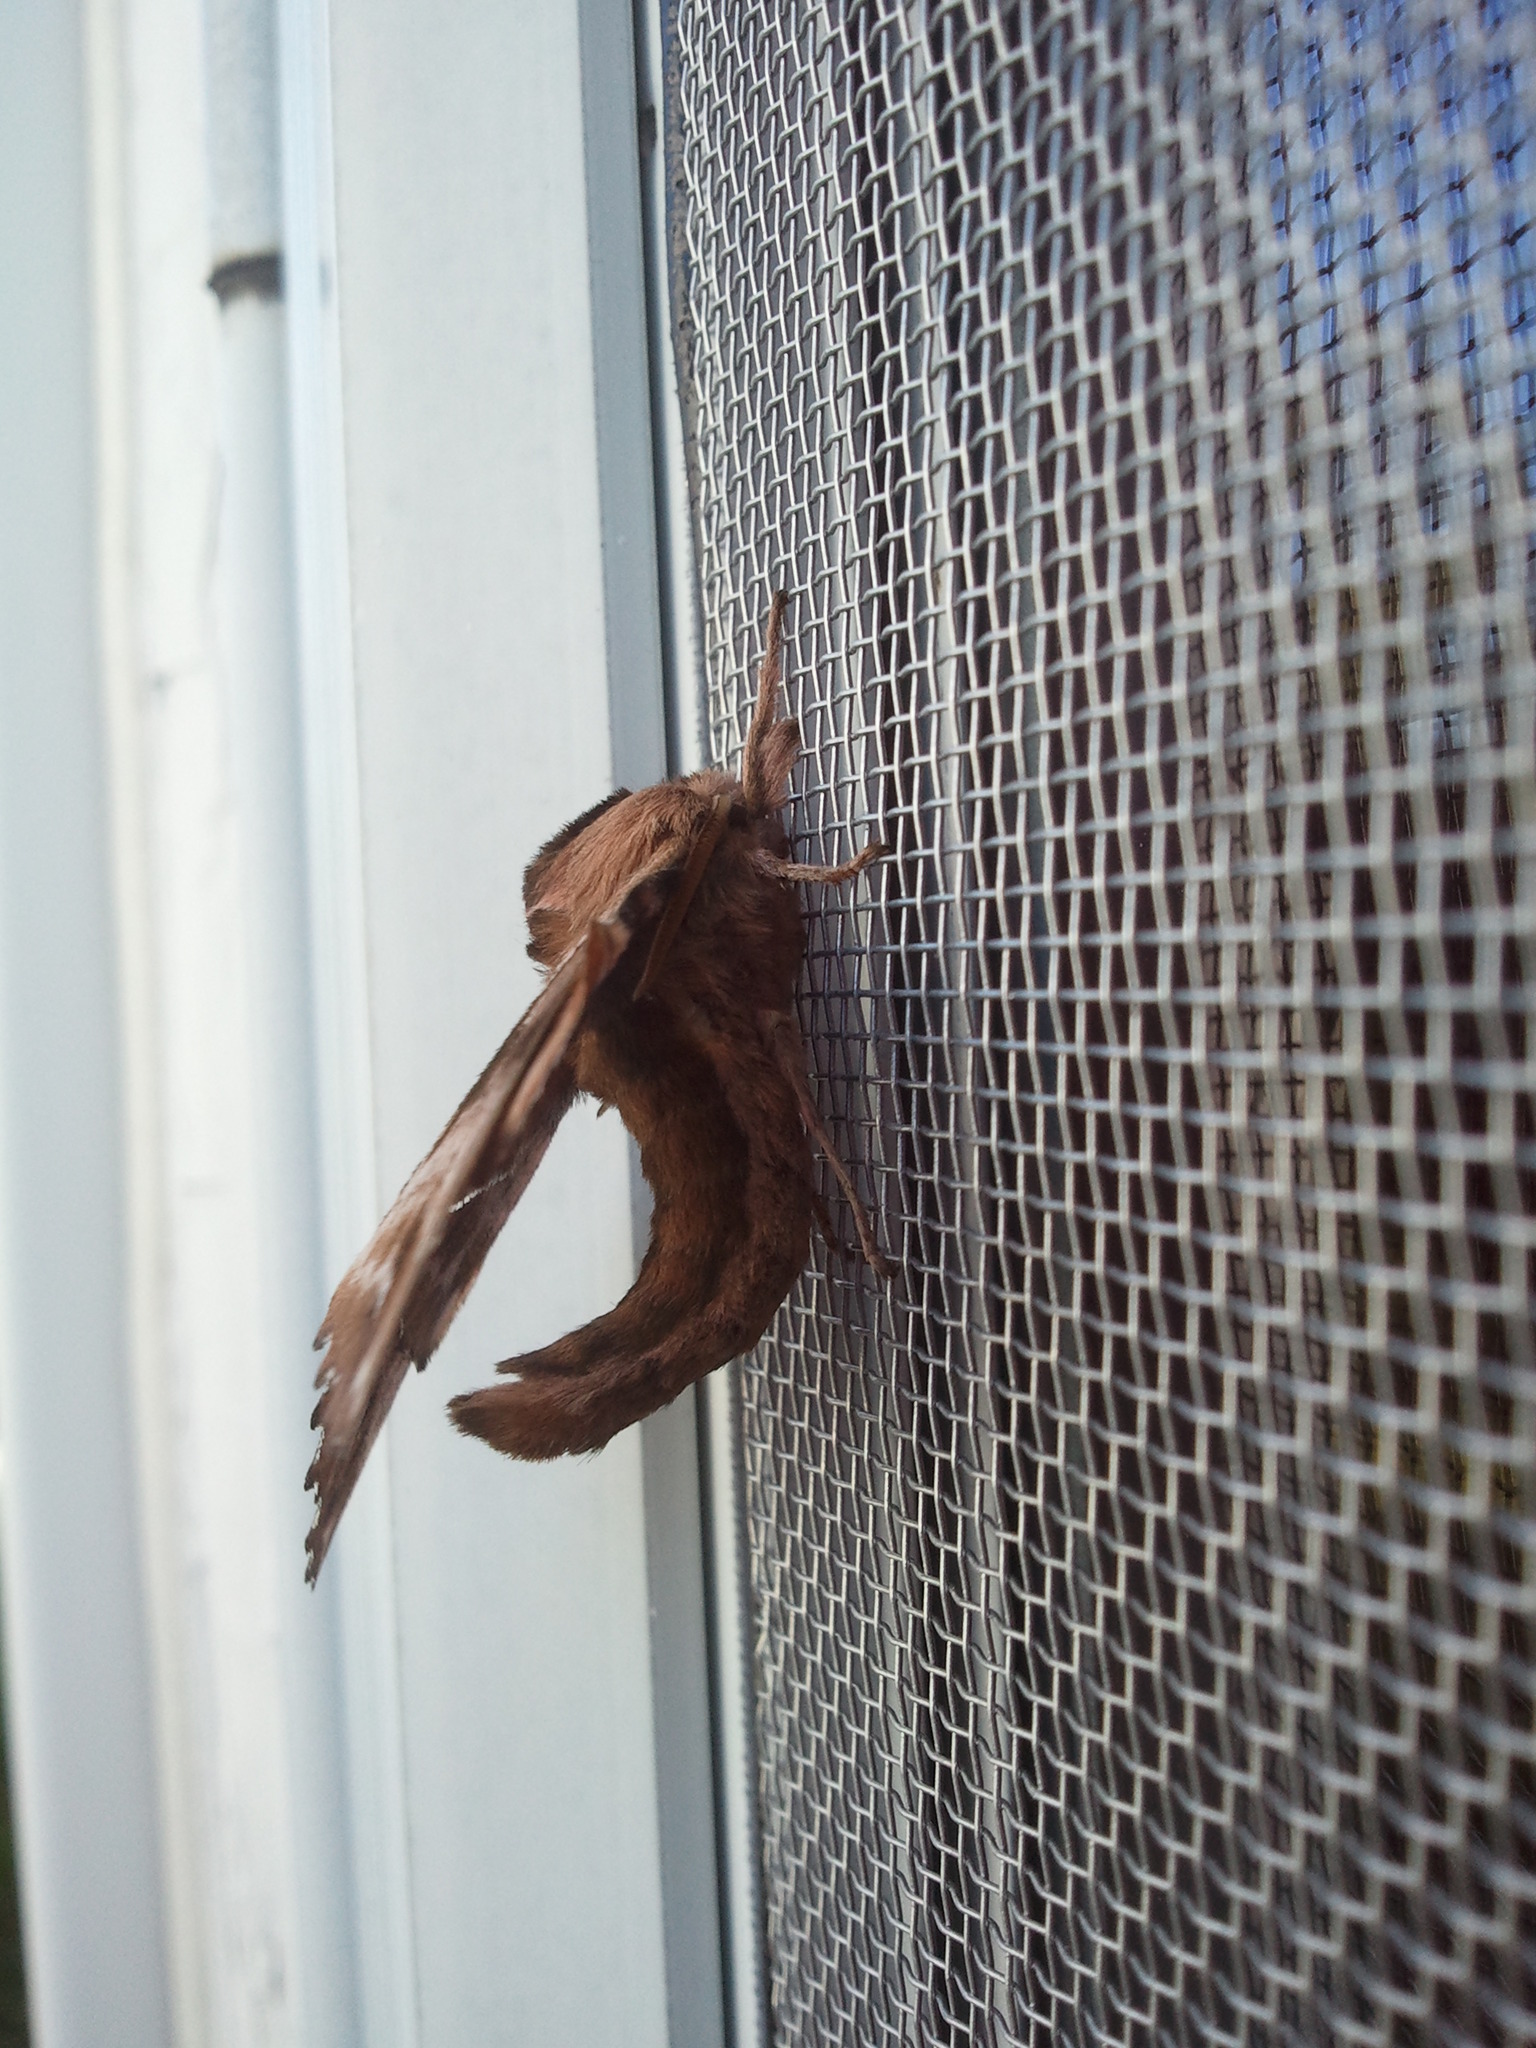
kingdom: Animalia
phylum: Arthropoda
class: Insecta
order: Lepidoptera
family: Sphingidae
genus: Paonias
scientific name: Paonias excaecata
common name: Blind-eyed sphinx
